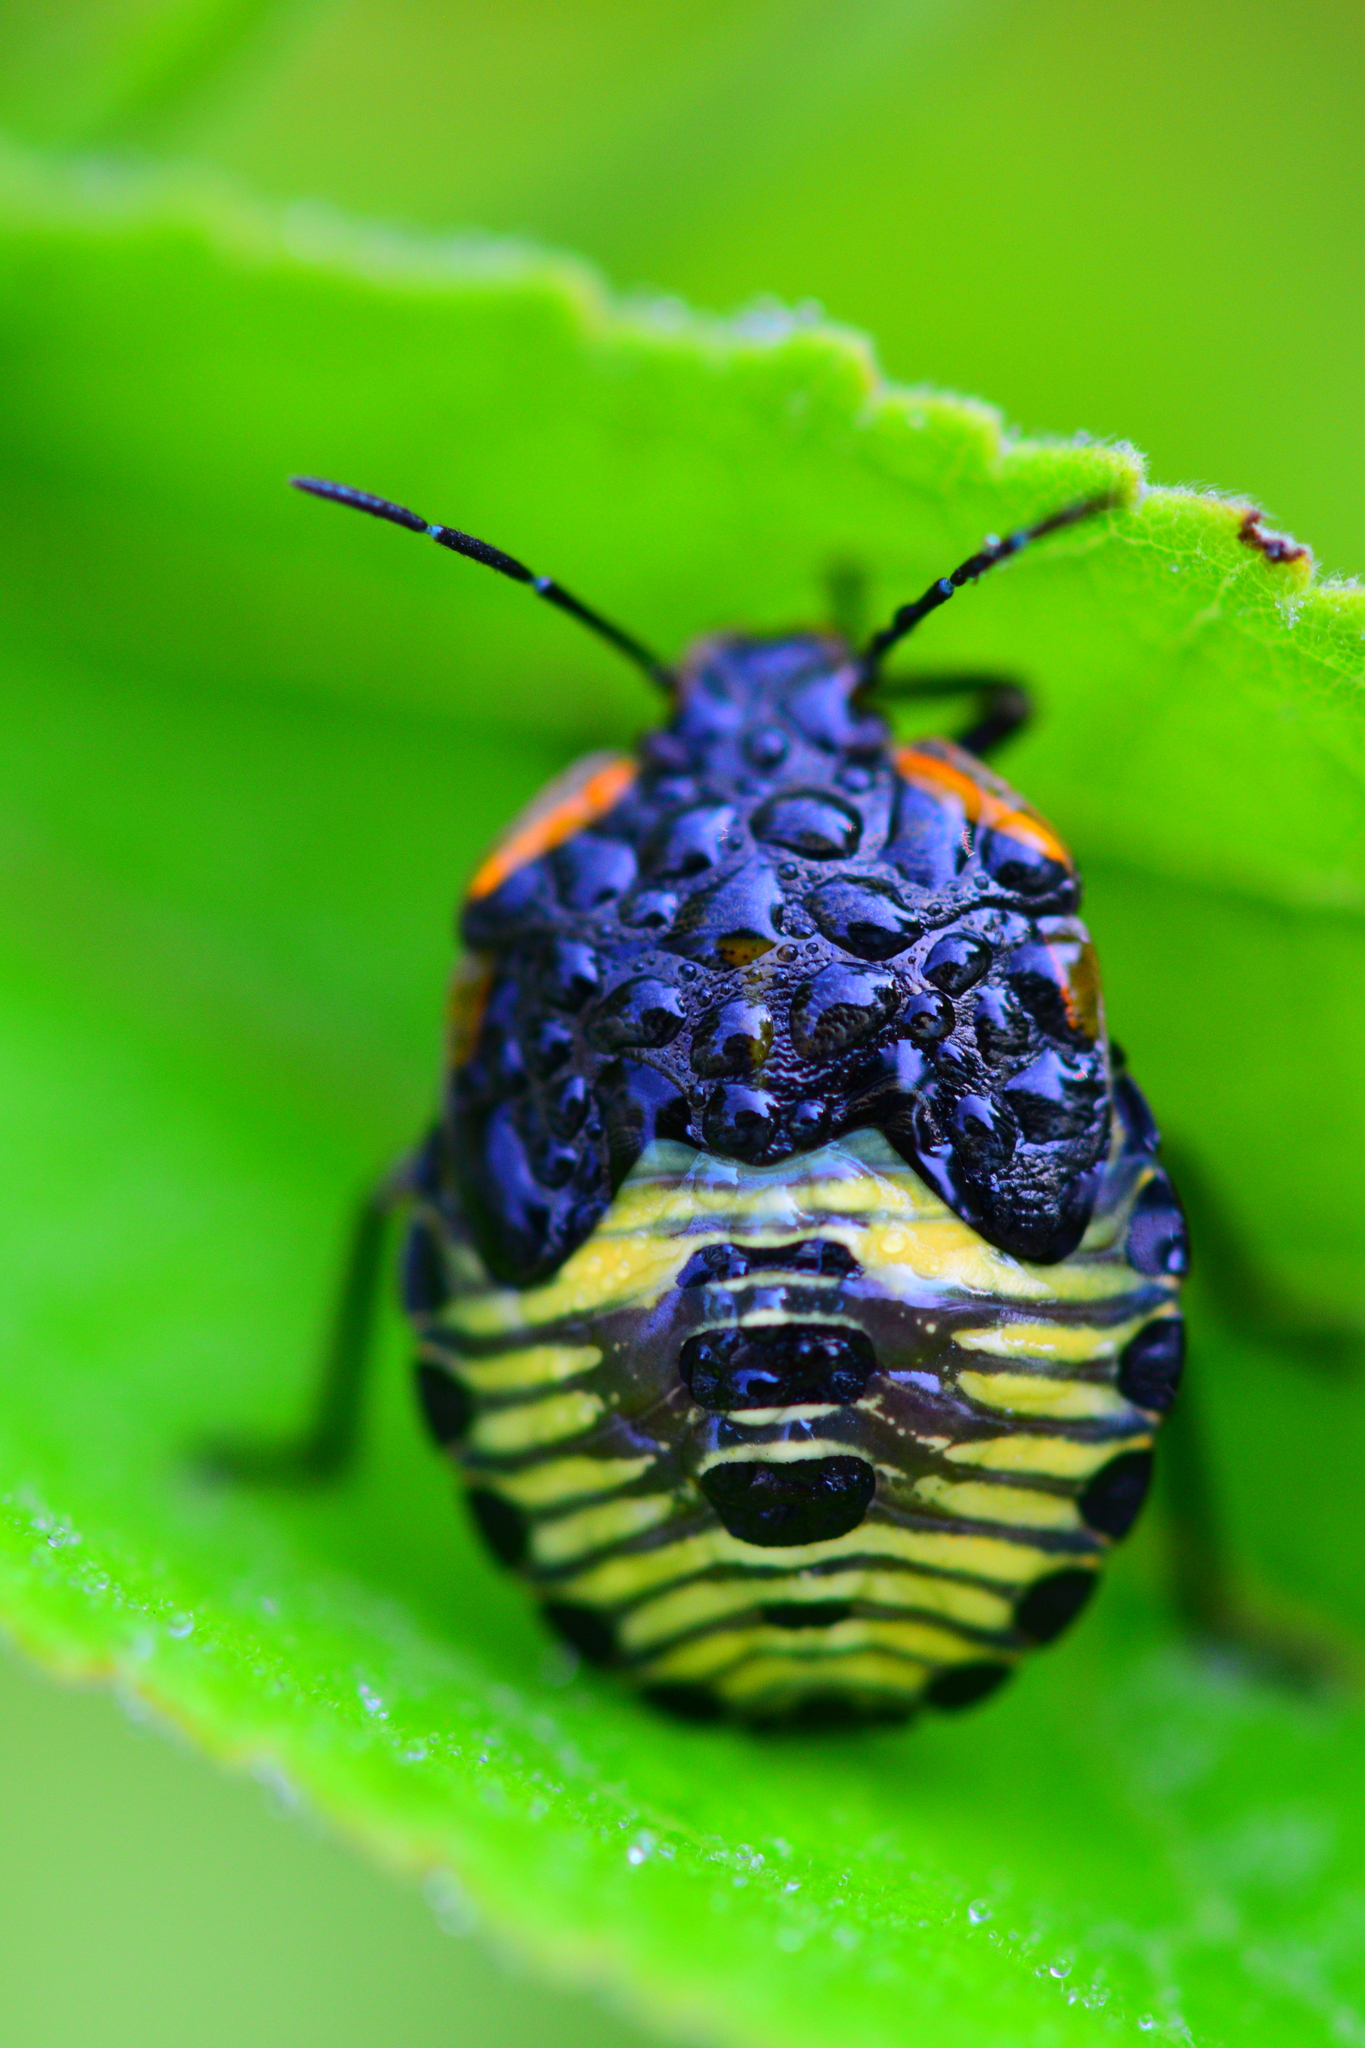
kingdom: Animalia
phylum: Arthropoda
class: Insecta
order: Hemiptera
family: Pentatomidae
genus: Chinavia
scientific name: Chinavia hilaris
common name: Green stink bug
